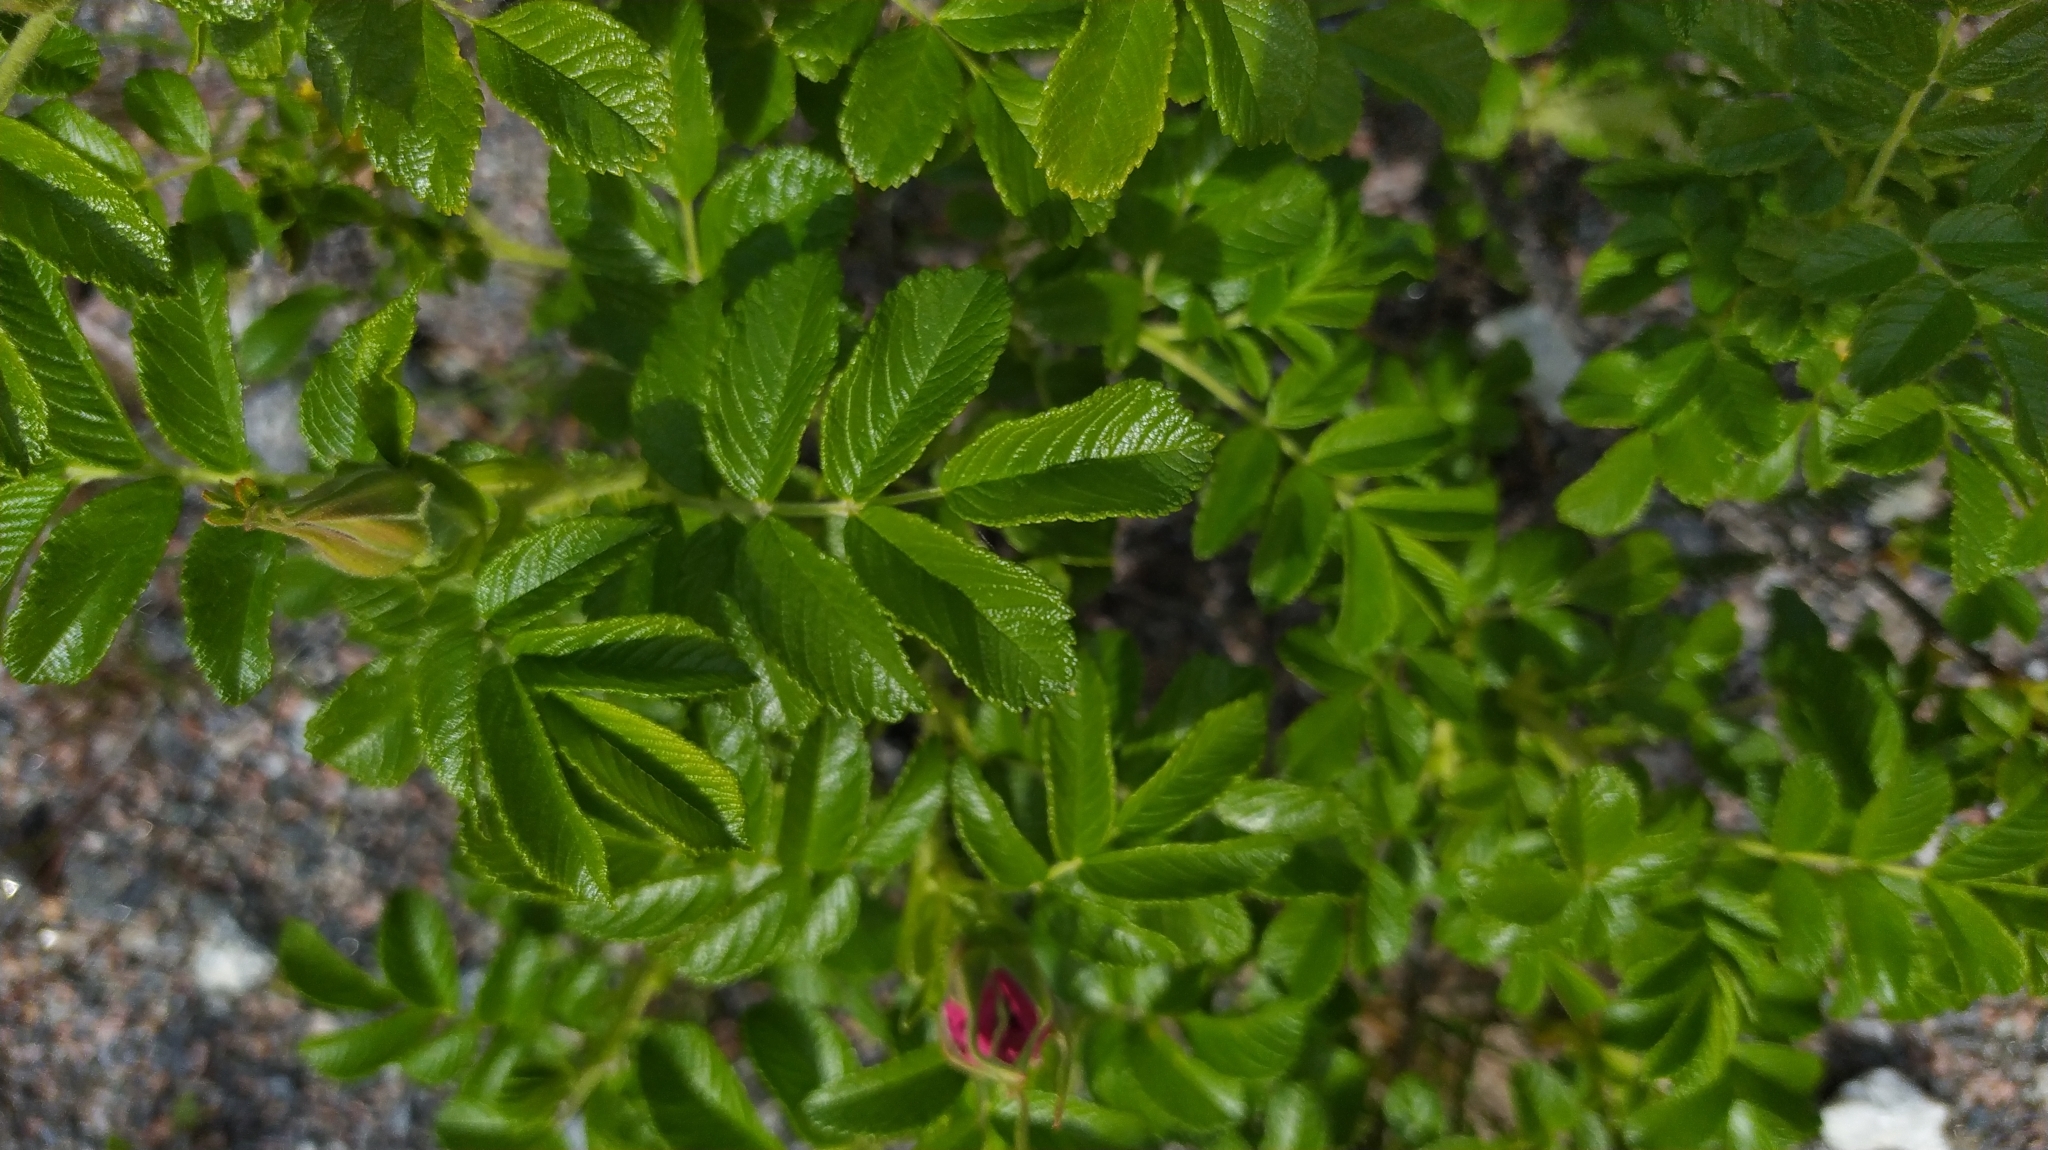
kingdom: Plantae
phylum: Tracheophyta
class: Magnoliopsida
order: Rosales
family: Rosaceae
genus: Rosa
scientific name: Rosa rugosa
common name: Japanese rose
